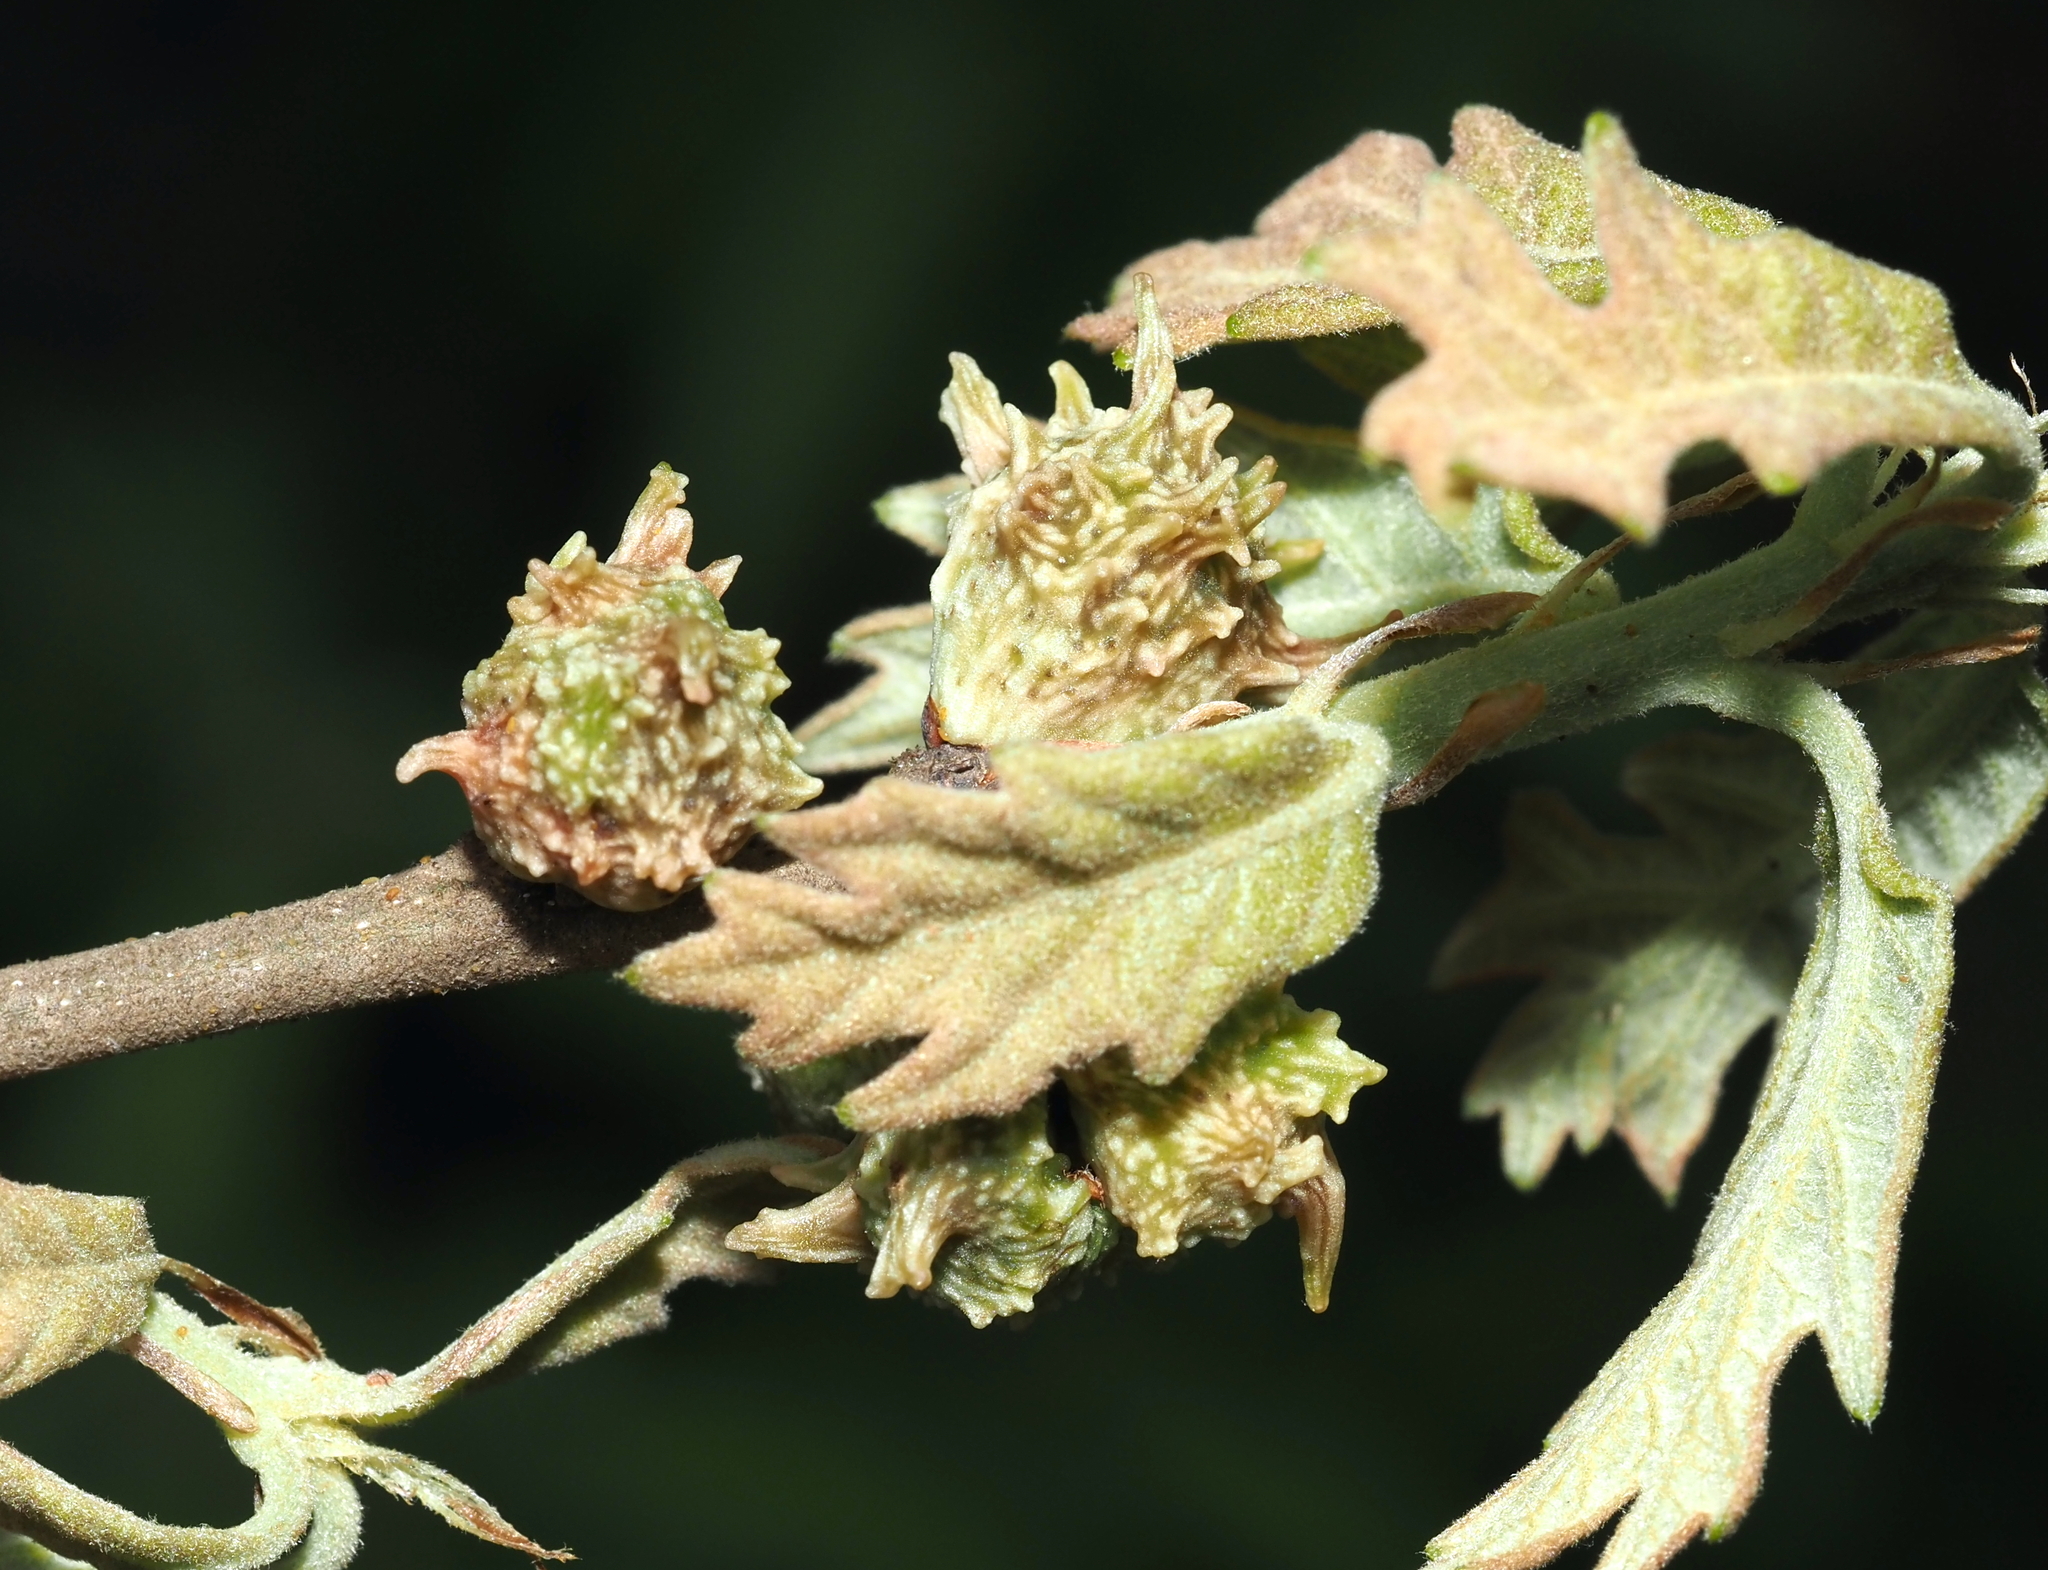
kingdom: Animalia
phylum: Arthropoda
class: Insecta
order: Hymenoptera
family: Cynipidae
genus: Andricus
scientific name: Andricus
